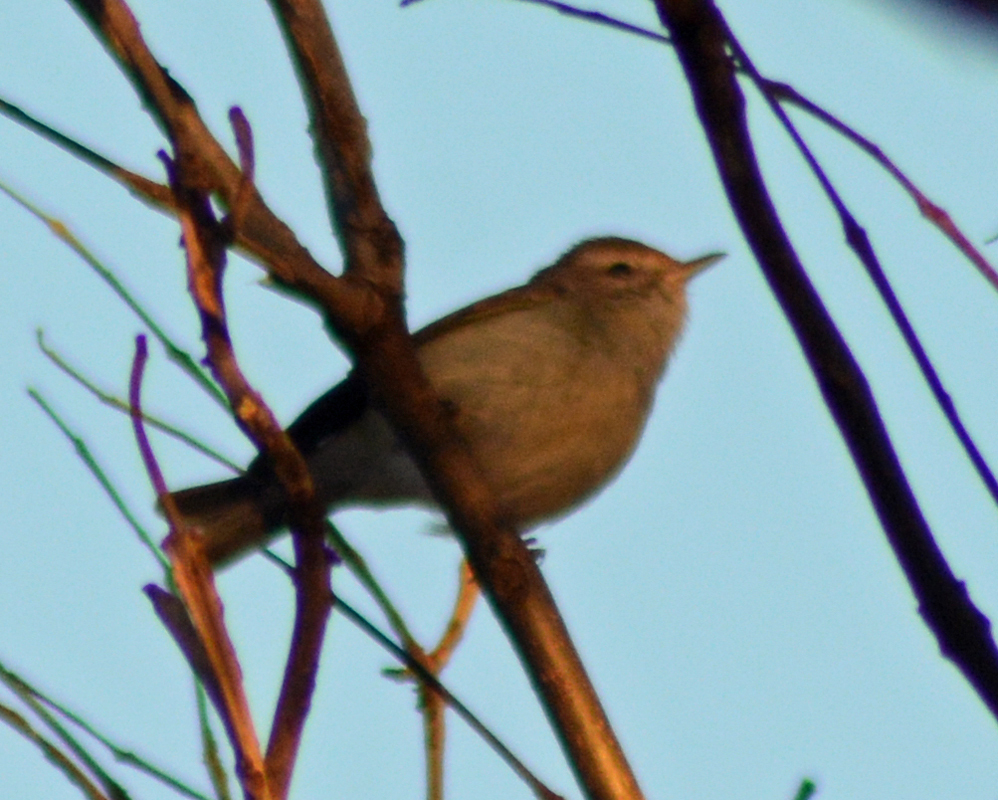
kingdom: Animalia
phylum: Chordata
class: Aves
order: Passeriformes
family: Vireonidae
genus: Vireo
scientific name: Vireo gilvus
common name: Warbling vireo
